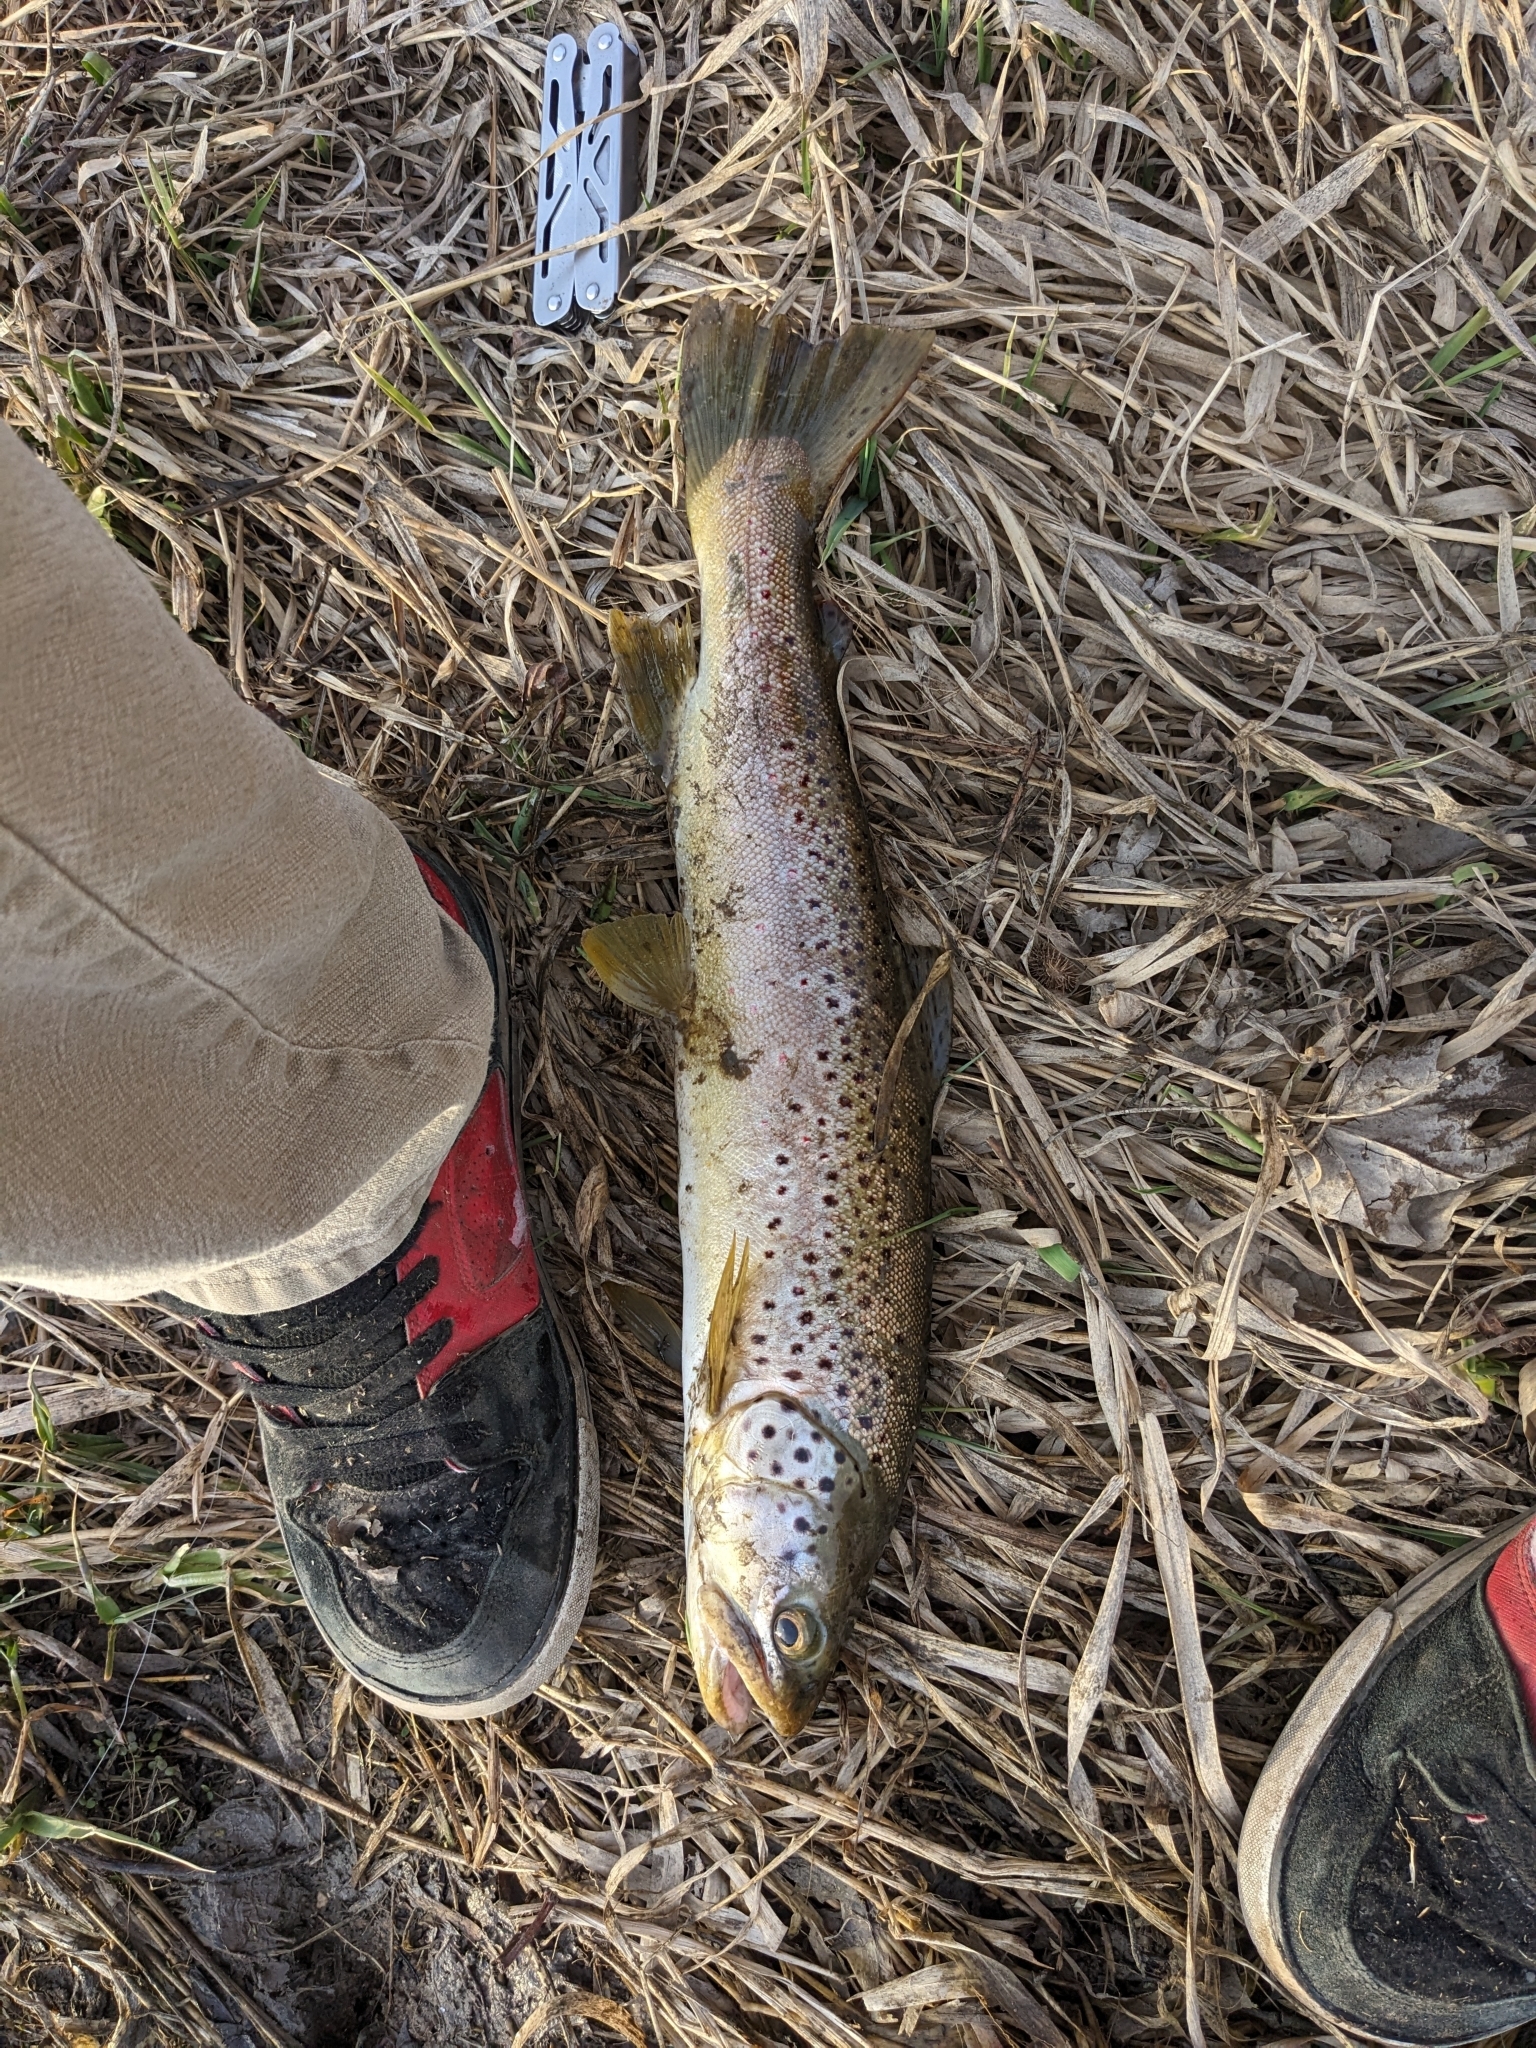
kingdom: Animalia
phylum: Chordata
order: Salmoniformes
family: Salmonidae
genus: Salmo
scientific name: Salmo trutta
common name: Brown trout
